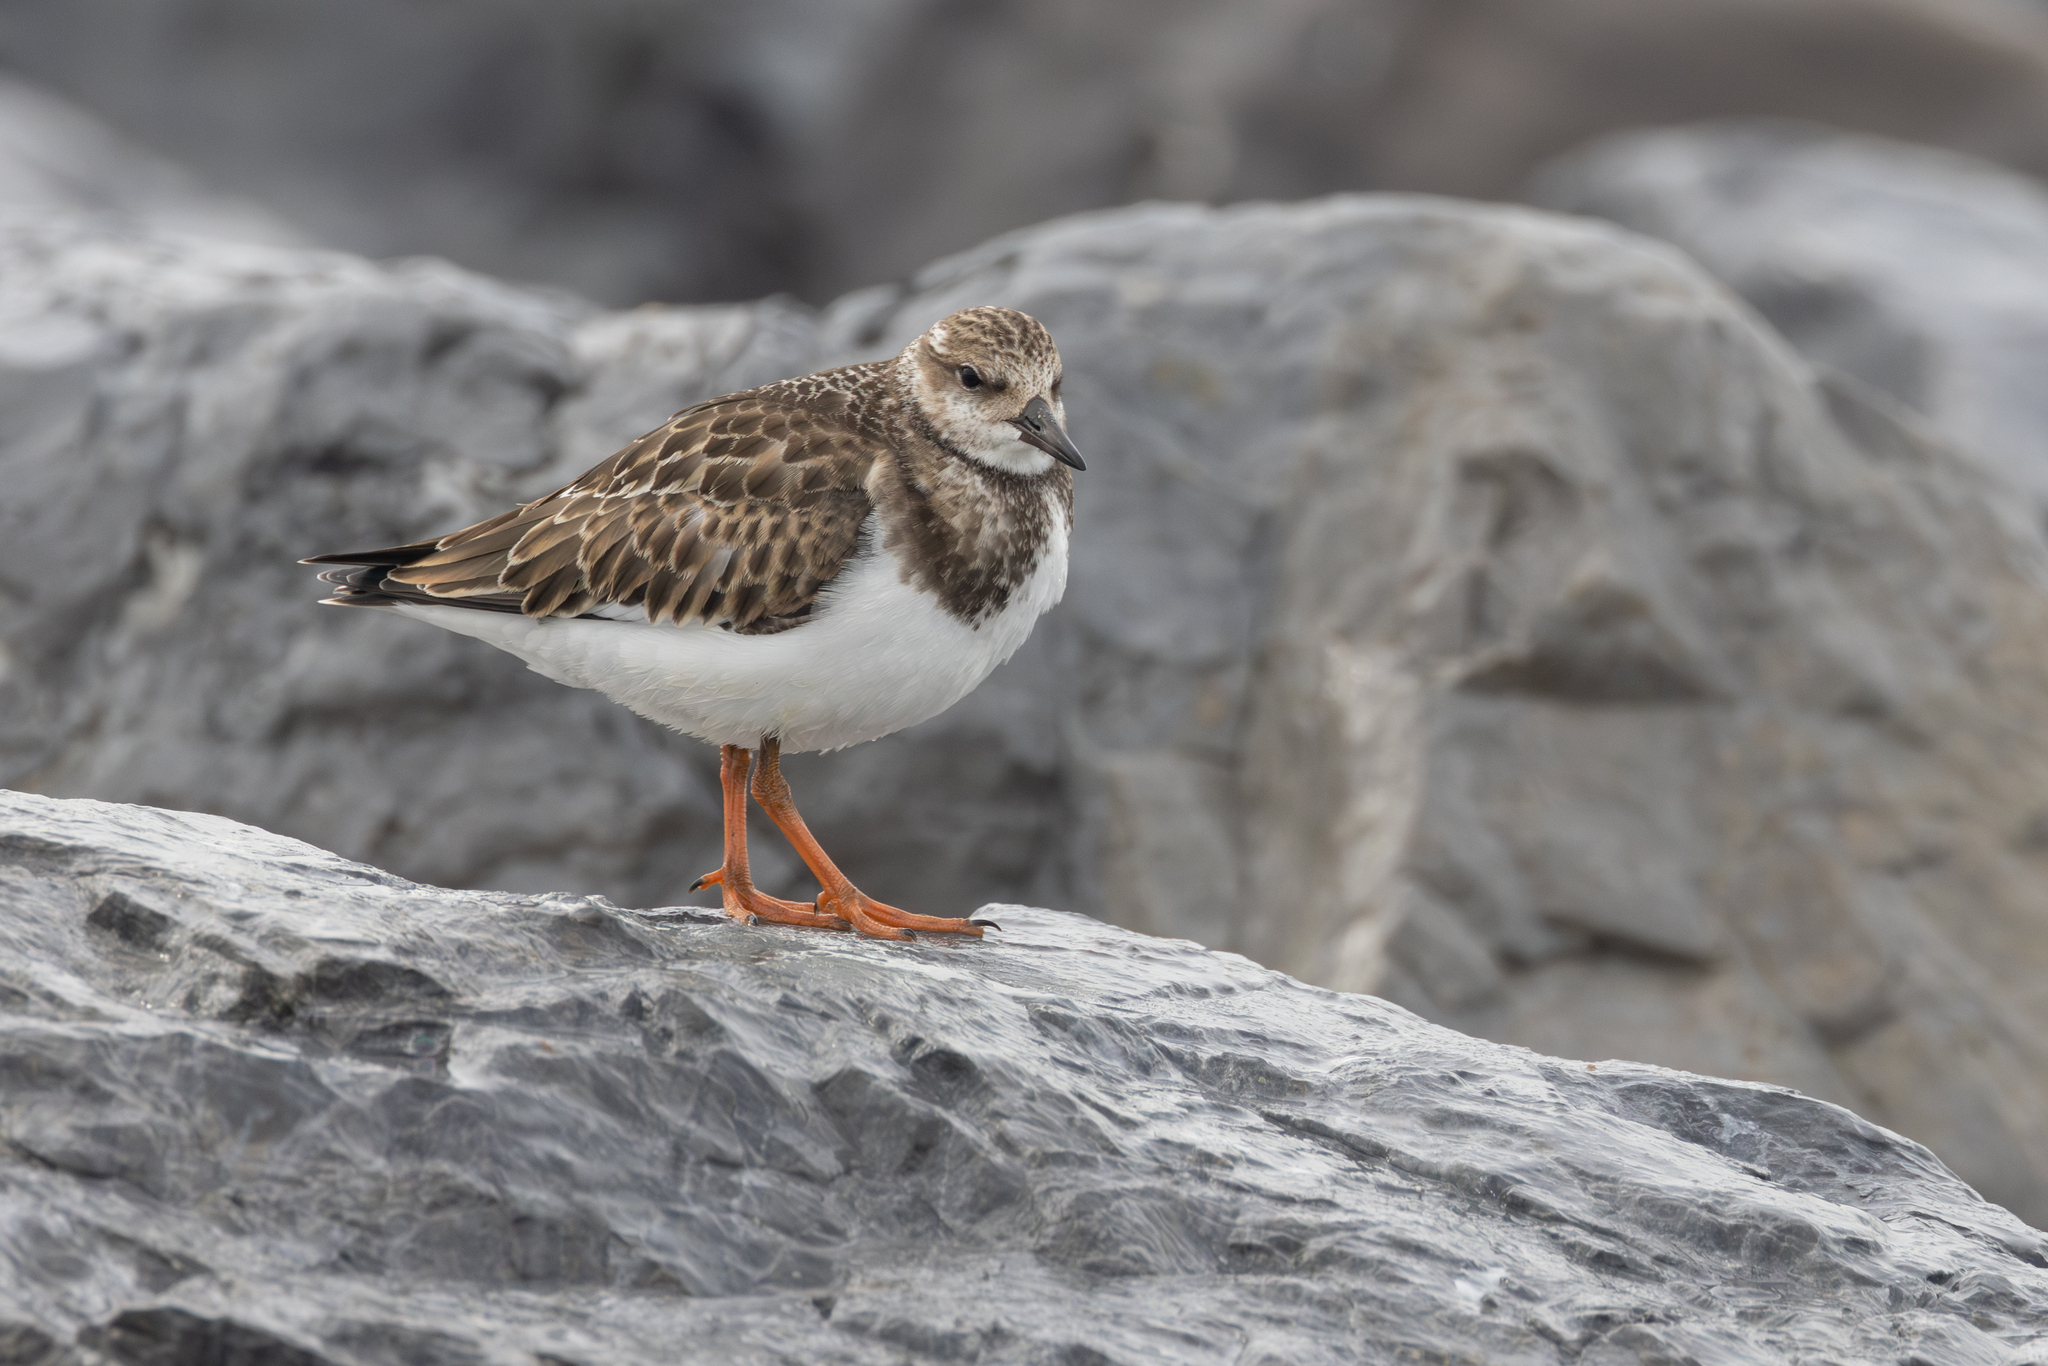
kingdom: Animalia
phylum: Chordata
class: Aves
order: Charadriiformes
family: Scolopacidae
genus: Arenaria
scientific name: Arenaria interpres
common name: Ruddy turnstone
